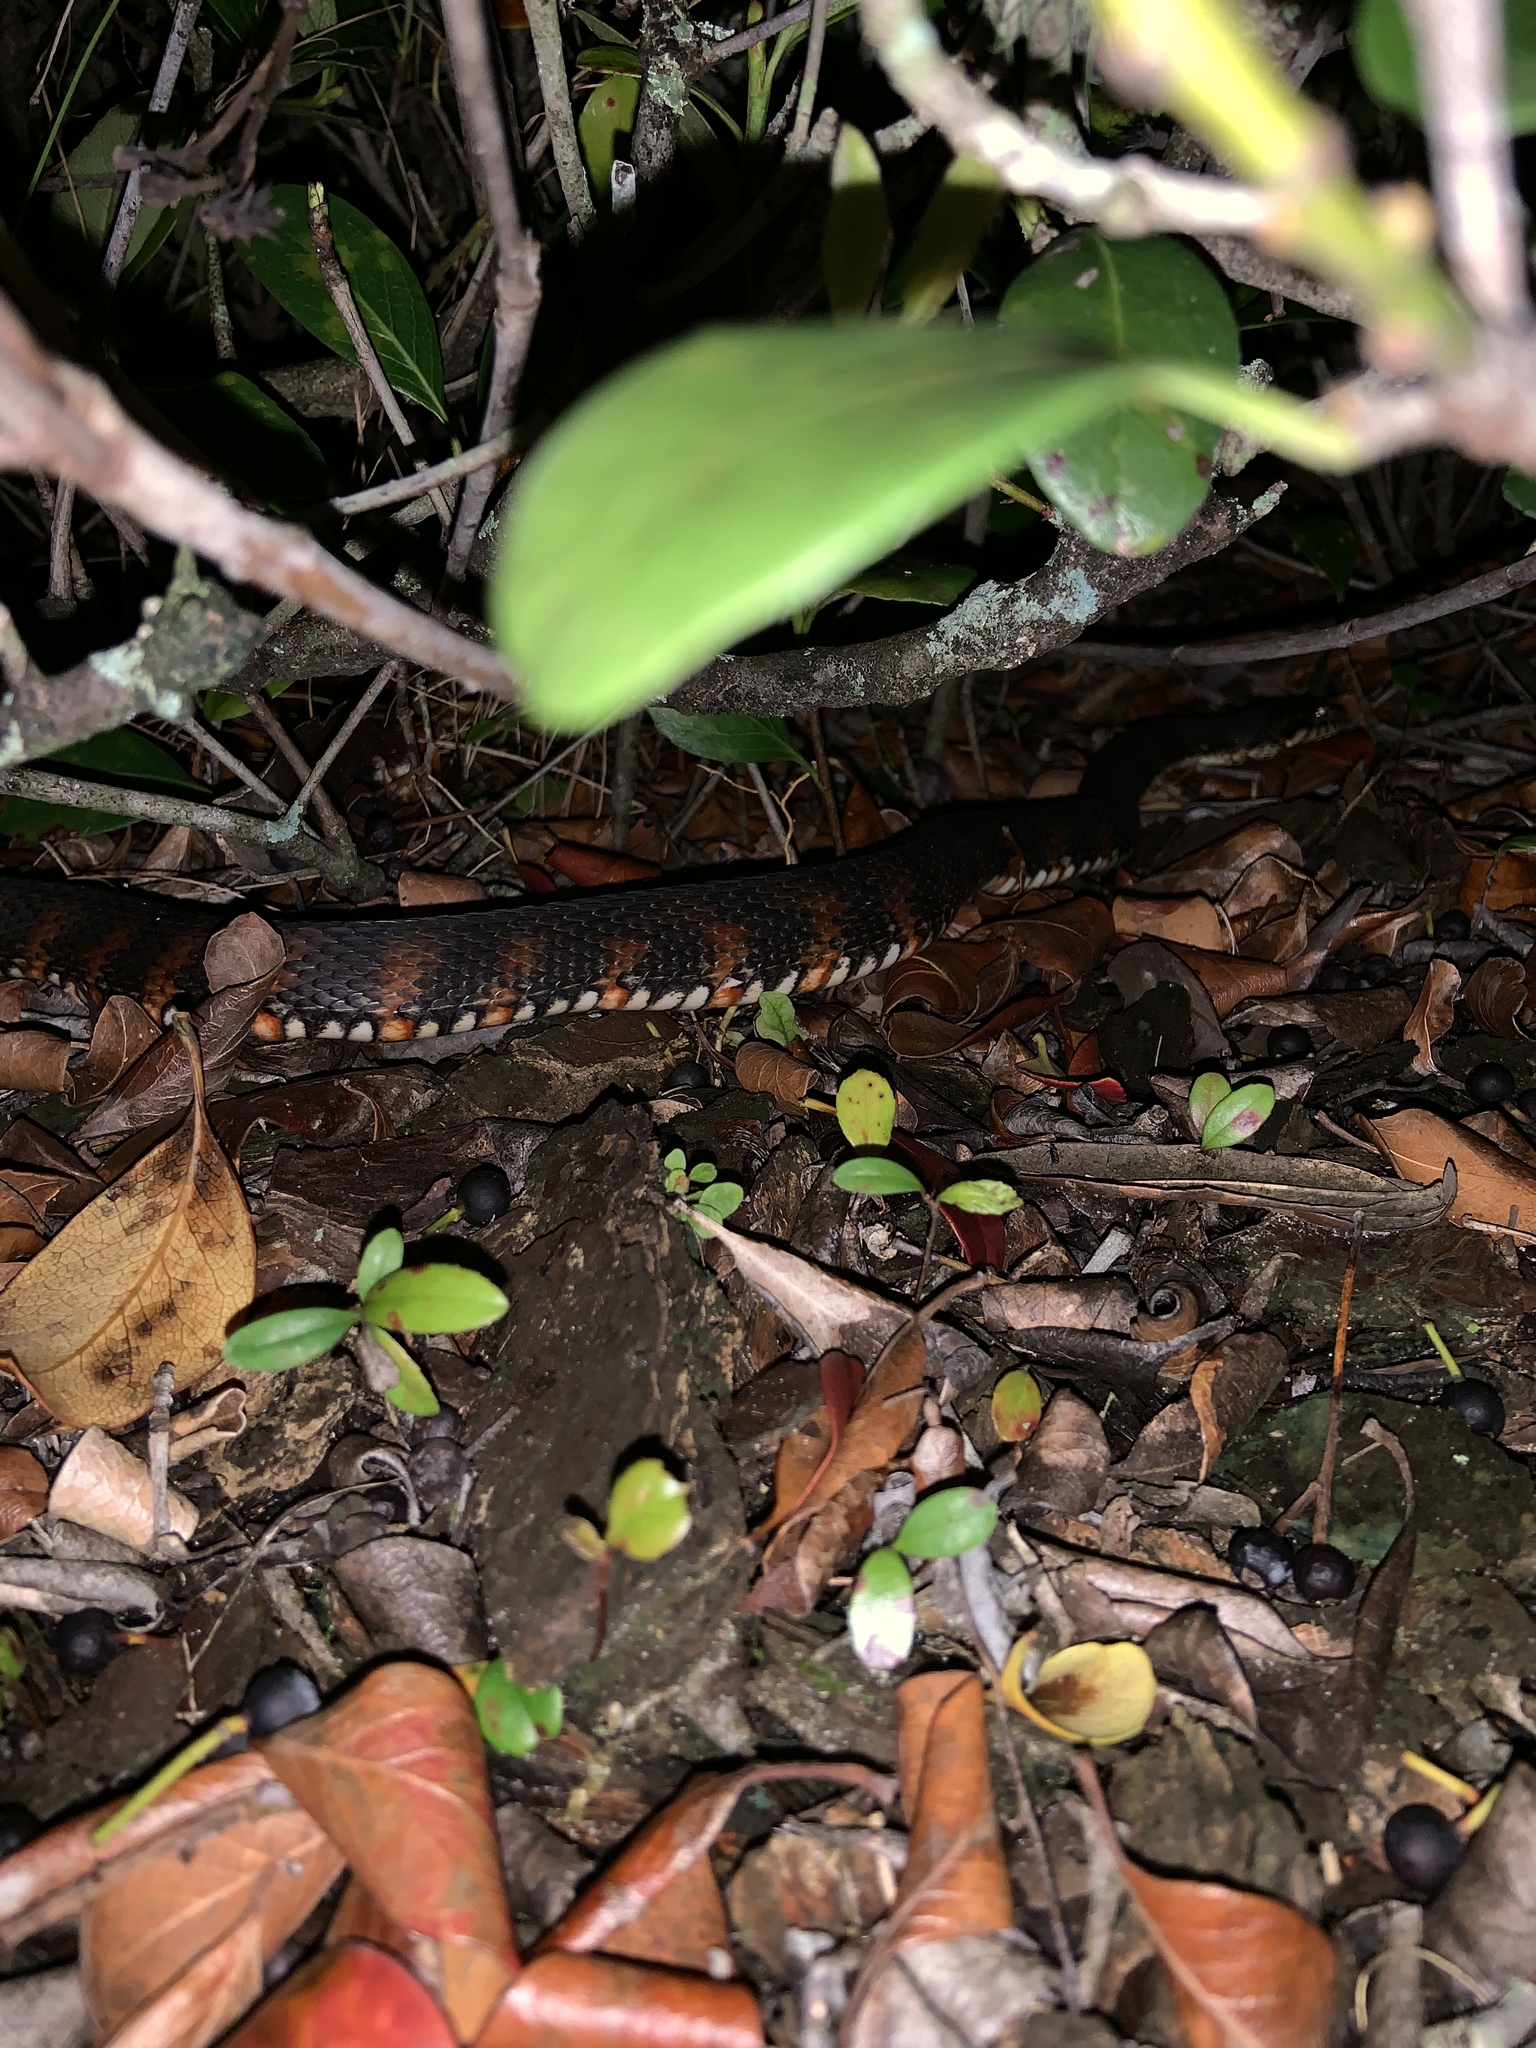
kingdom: Animalia
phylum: Chordata
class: Squamata
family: Colubridae
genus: Nerodia
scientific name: Nerodia fasciata
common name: Southern water snake
